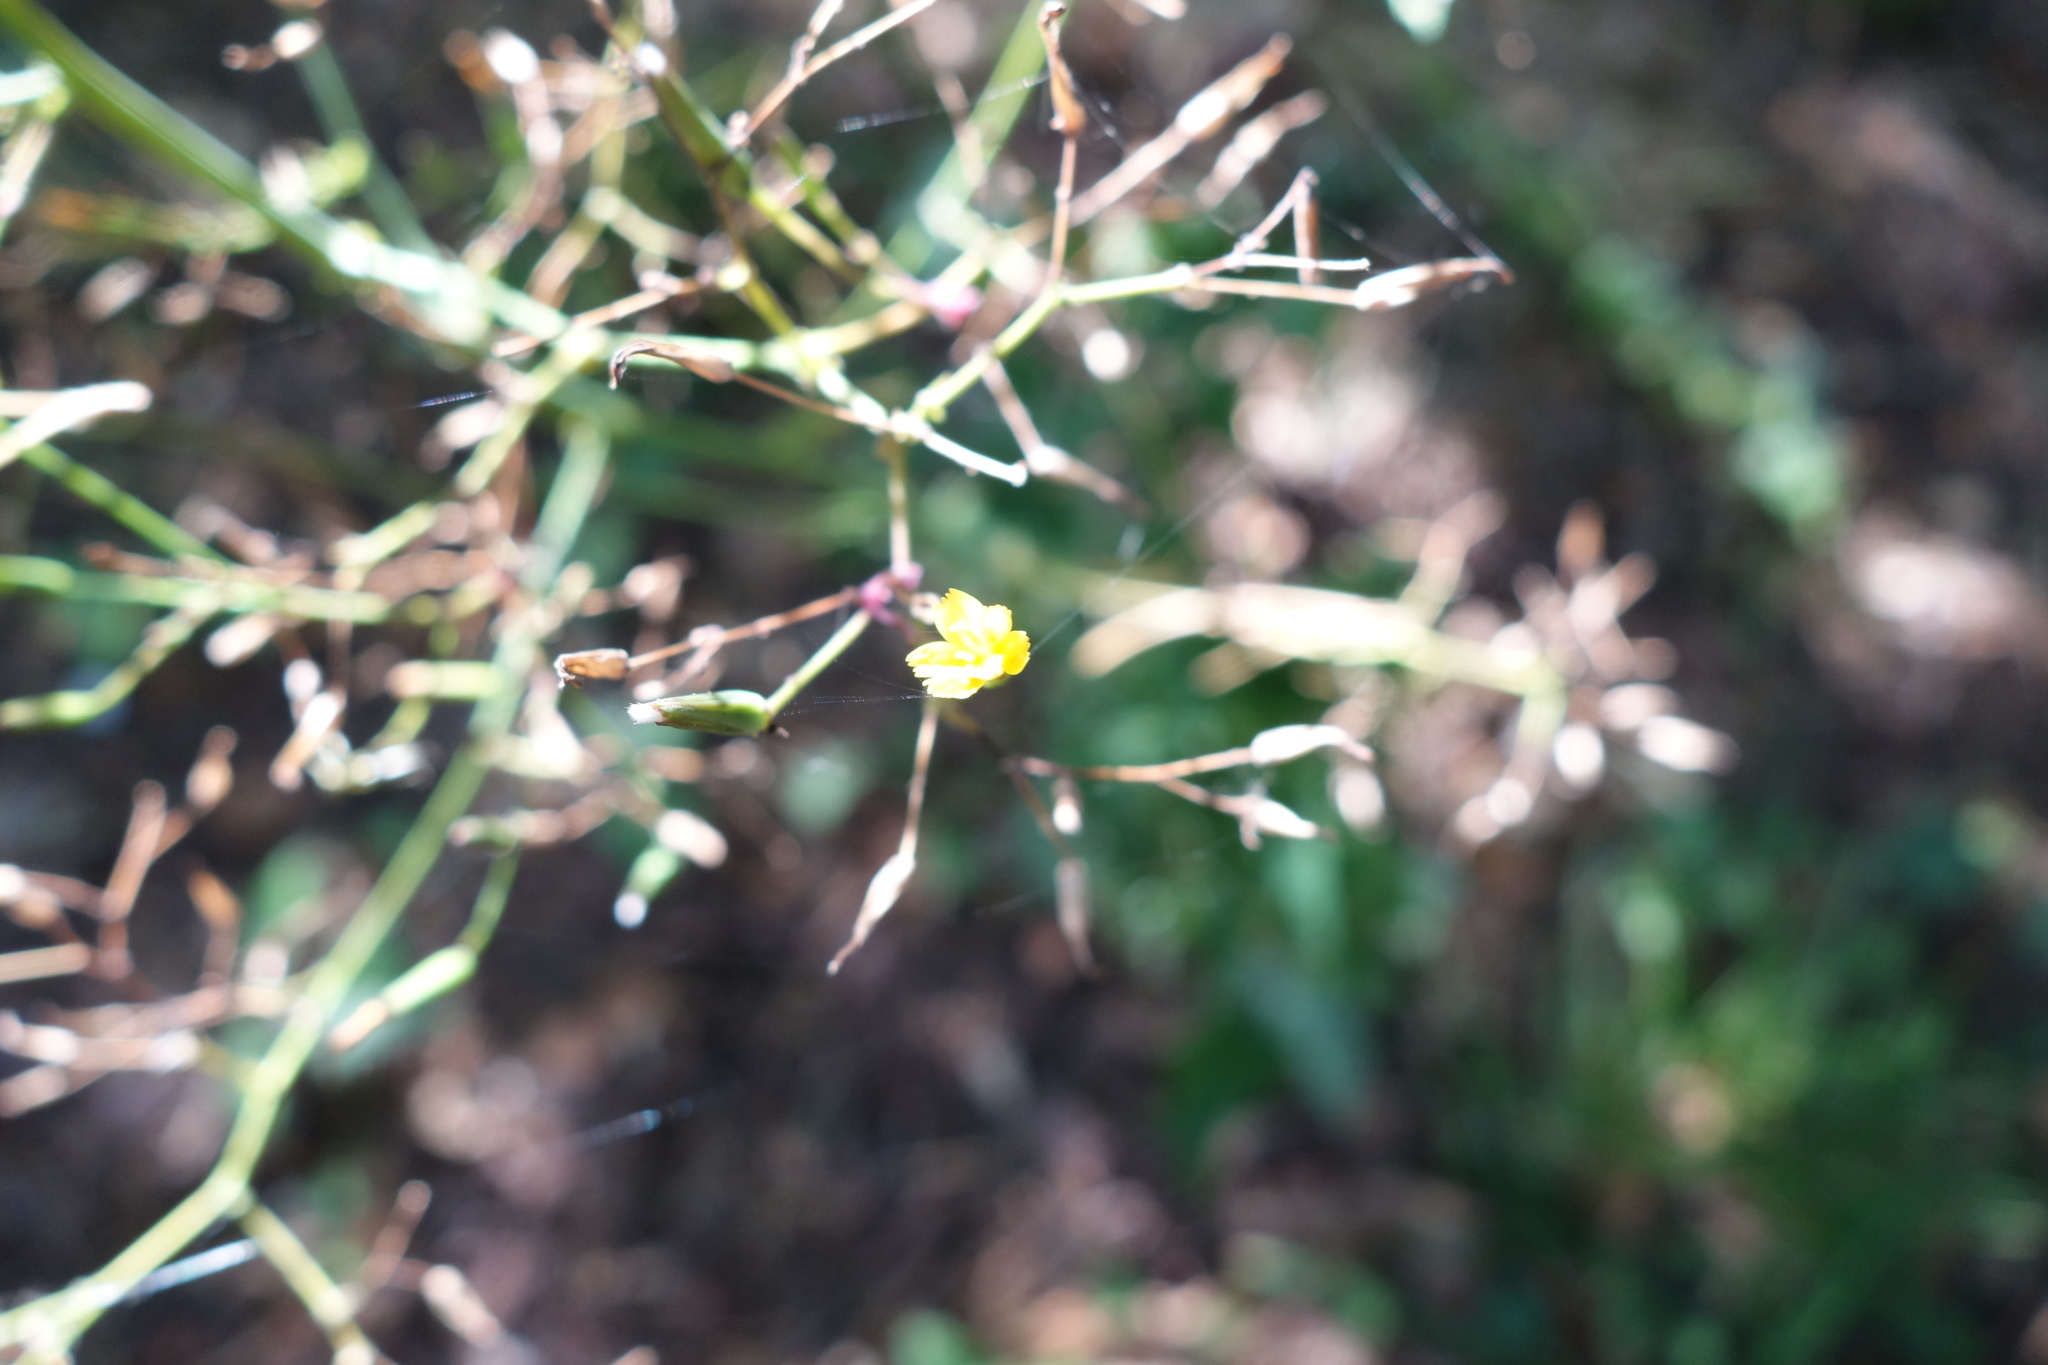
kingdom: Plantae
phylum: Tracheophyta
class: Magnoliopsida
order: Asterales
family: Asteraceae
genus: Mycelis
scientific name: Mycelis muralis
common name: Wall lettuce
